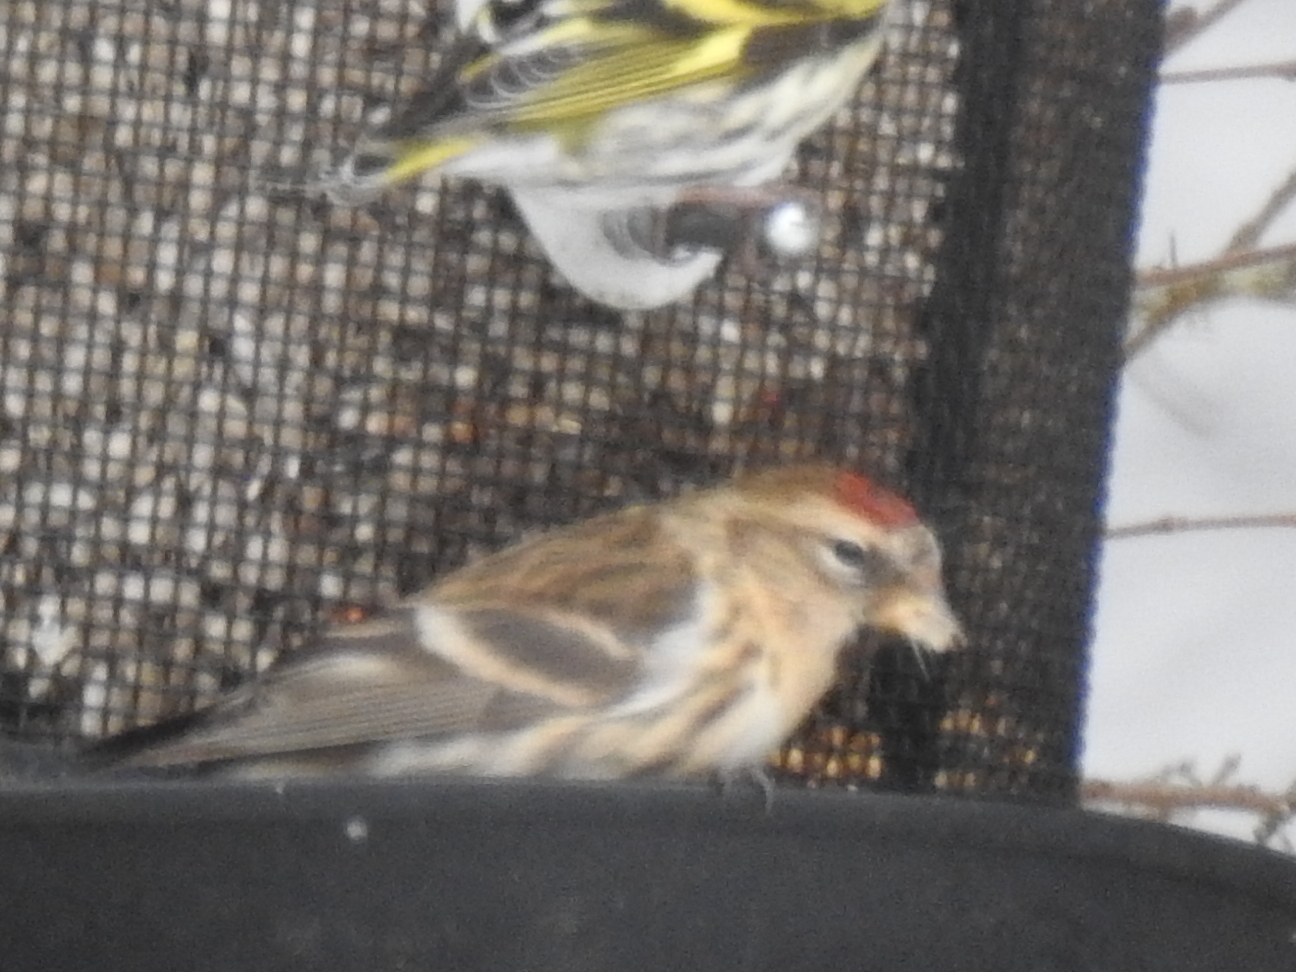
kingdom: Animalia
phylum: Chordata
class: Aves
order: Passeriformes
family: Fringillidae
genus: Acanthis
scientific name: Acanthis flammea
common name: Common redpoll
